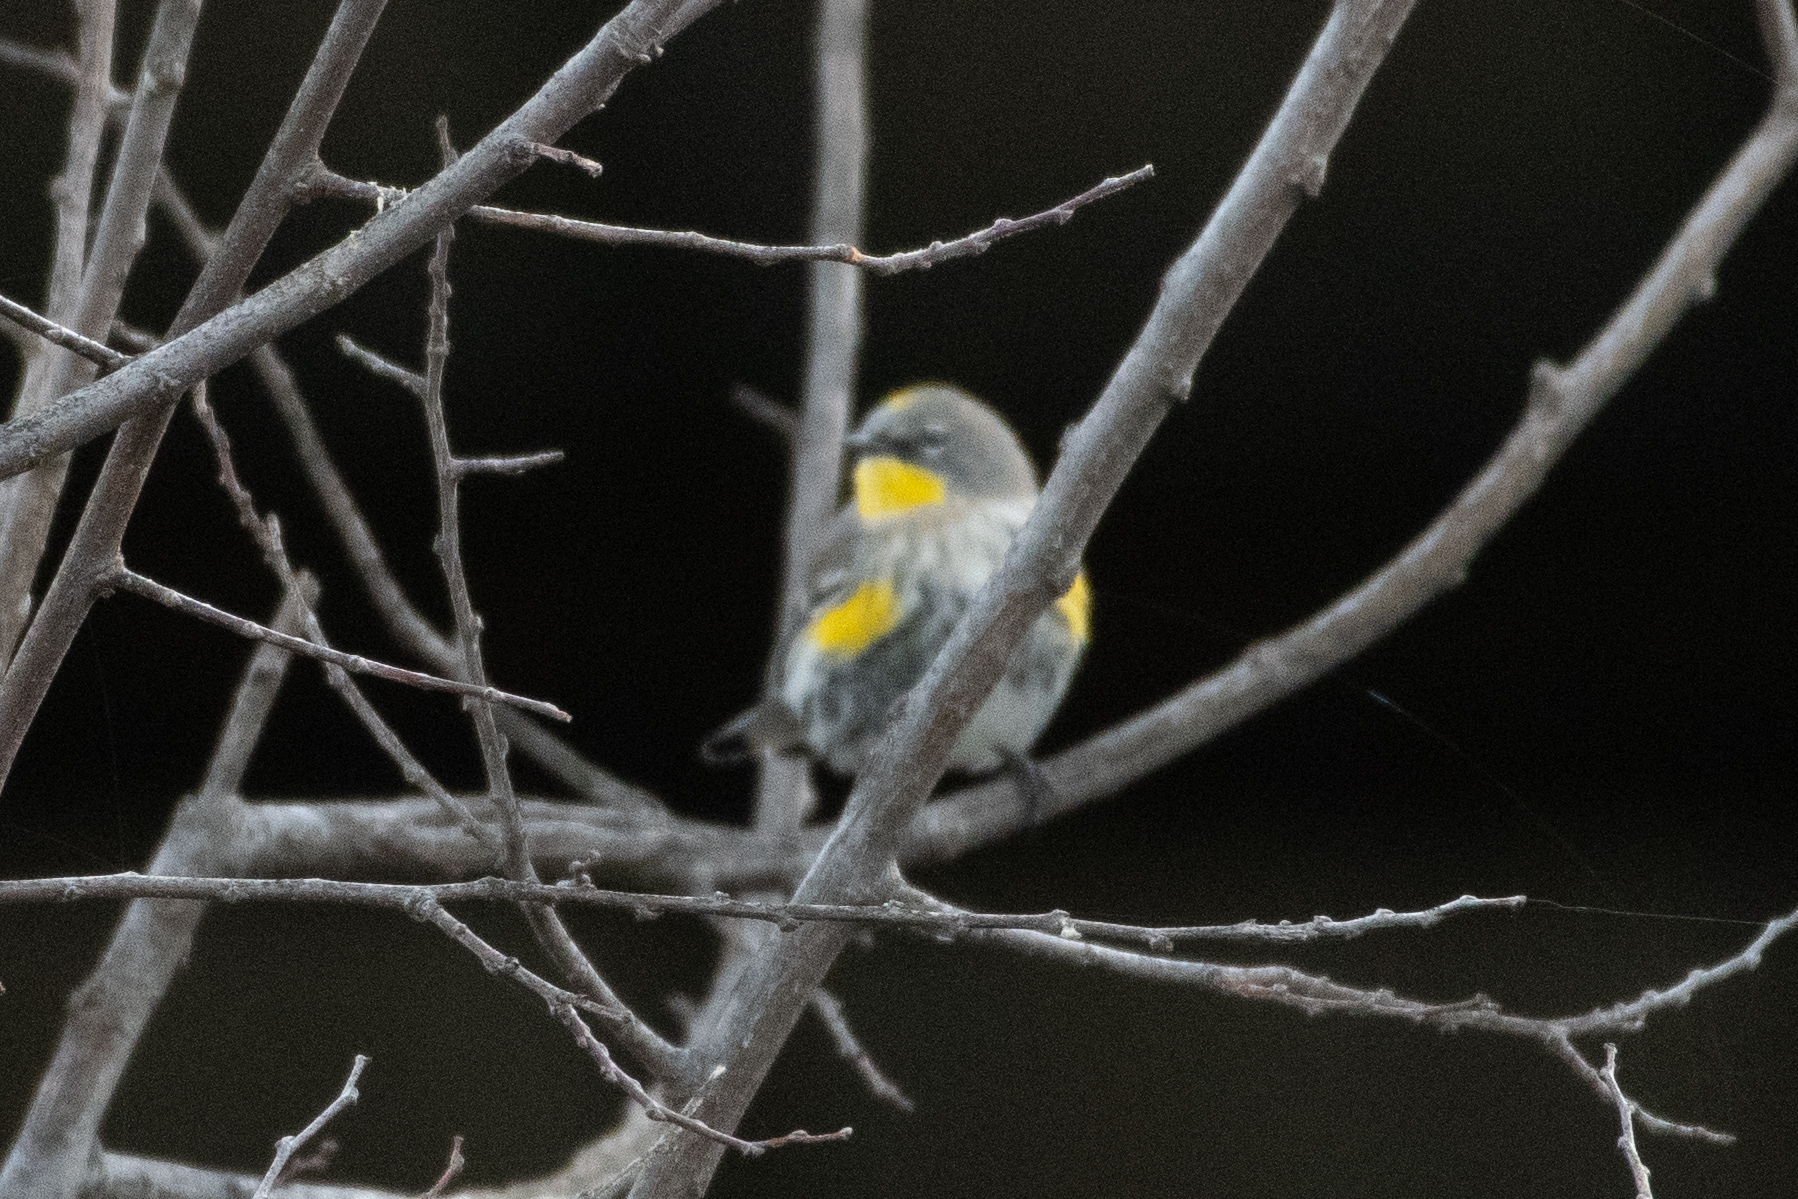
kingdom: Animalia
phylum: Chordata
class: Aves
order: Passeriformes
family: Parulidae
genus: Setophaga
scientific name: Setophaga coronata
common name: Myrtle warbler
